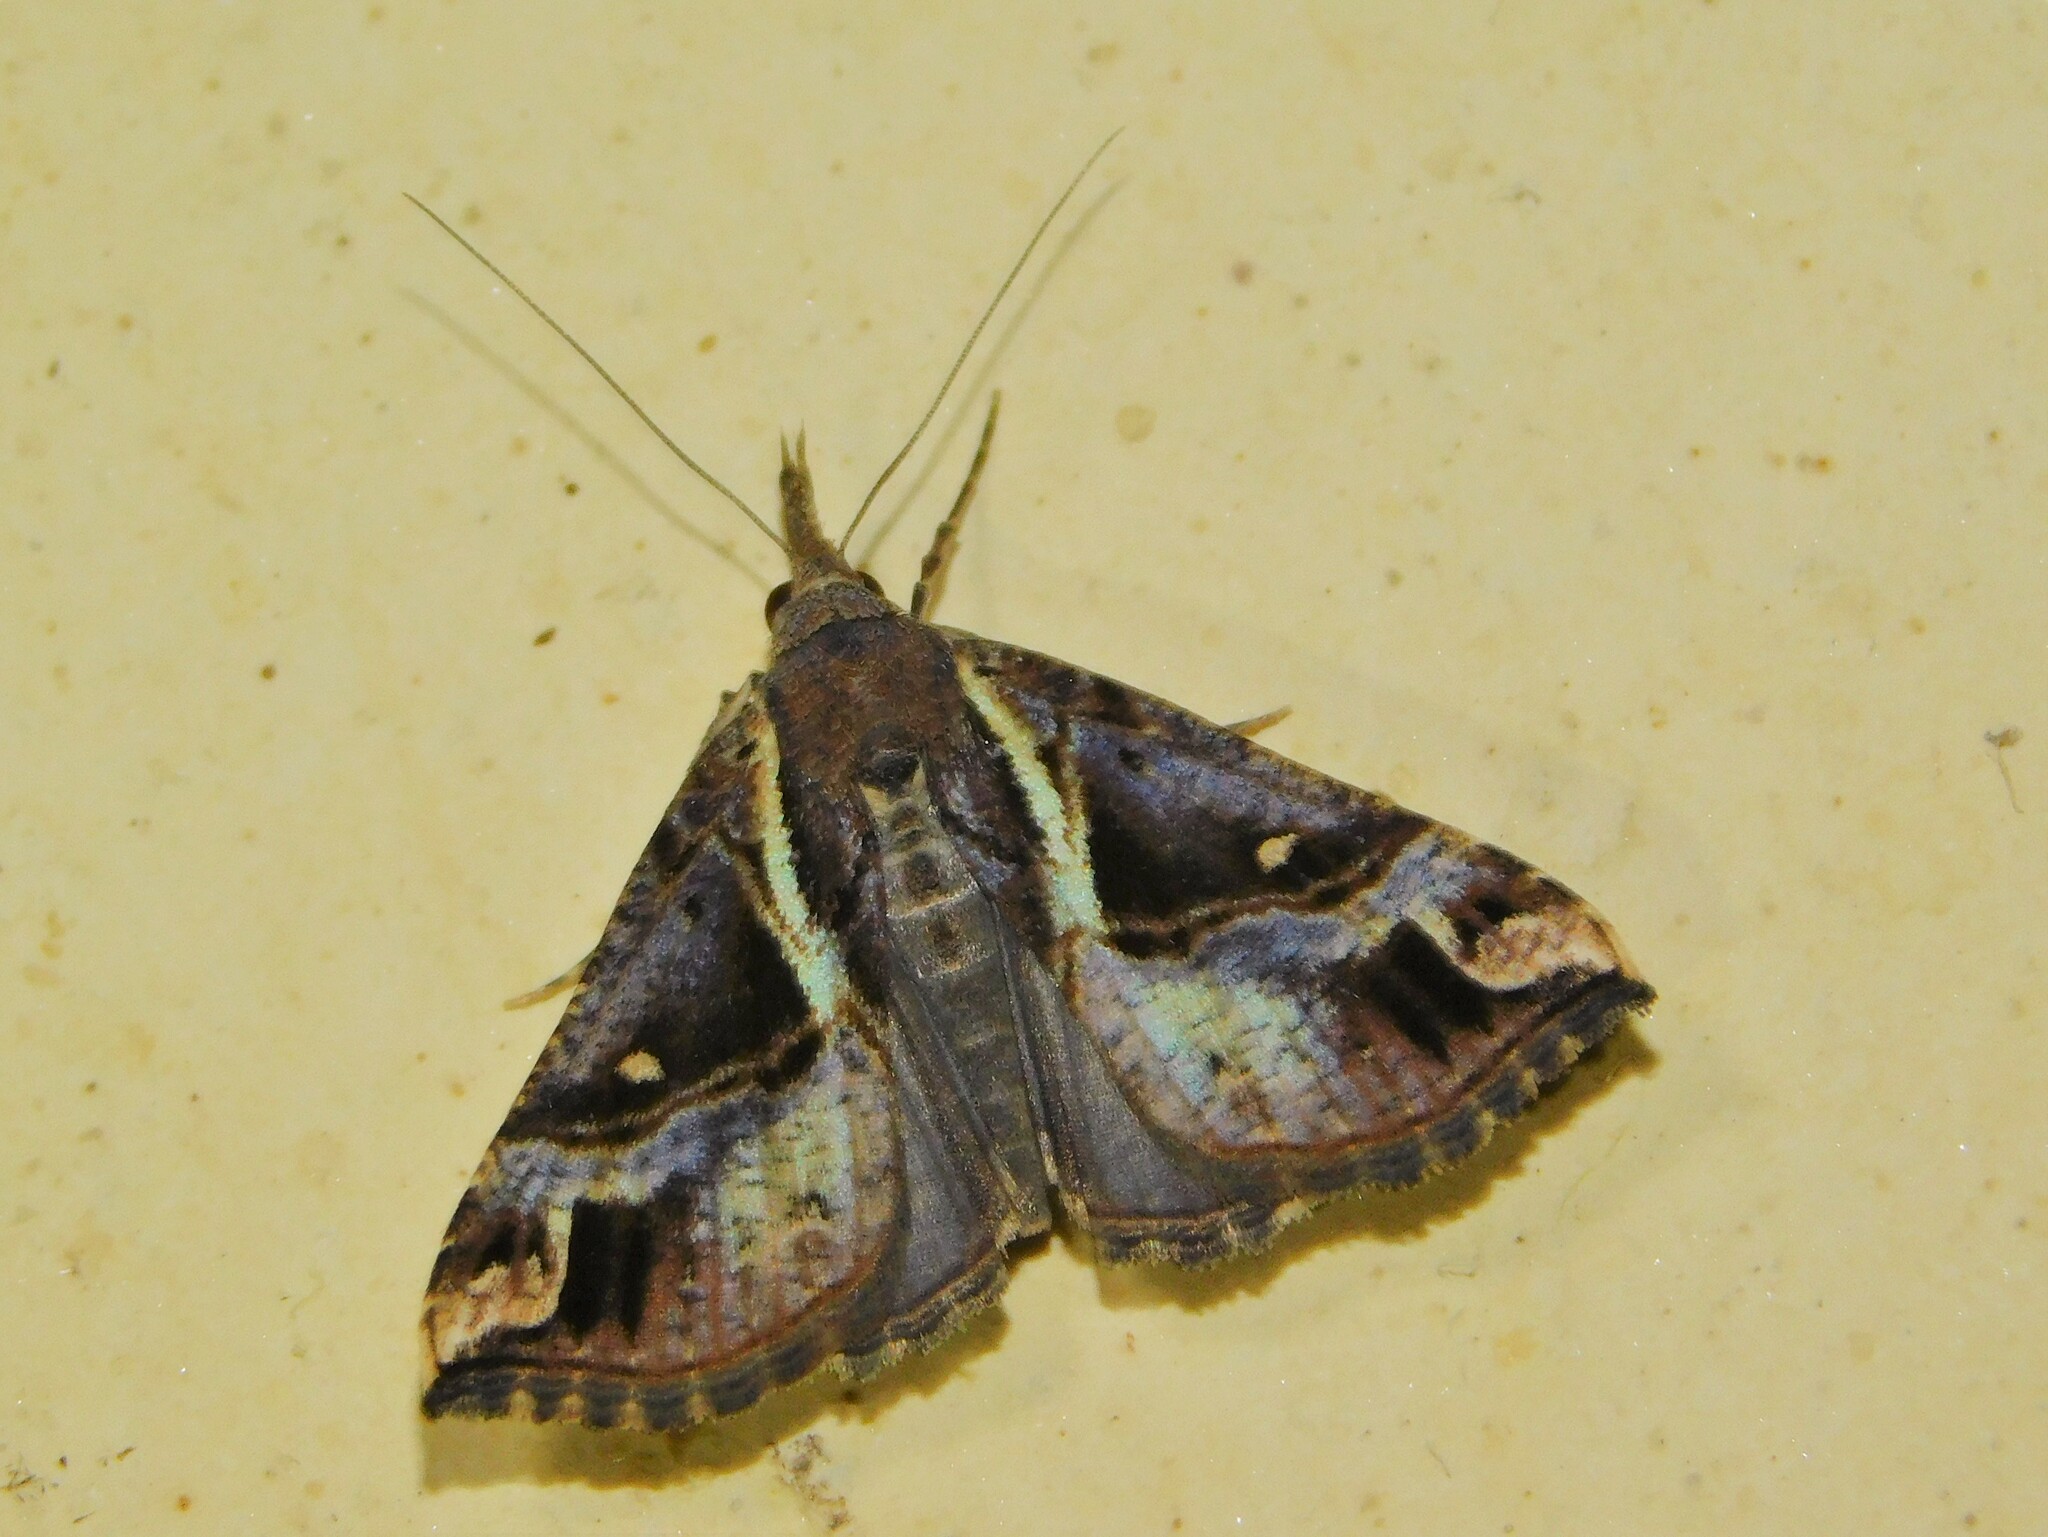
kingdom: Animalia
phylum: Arthropoda
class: Insecta
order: Lepidoptera
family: Erebidae
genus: Hypena
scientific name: Hypena varialis
